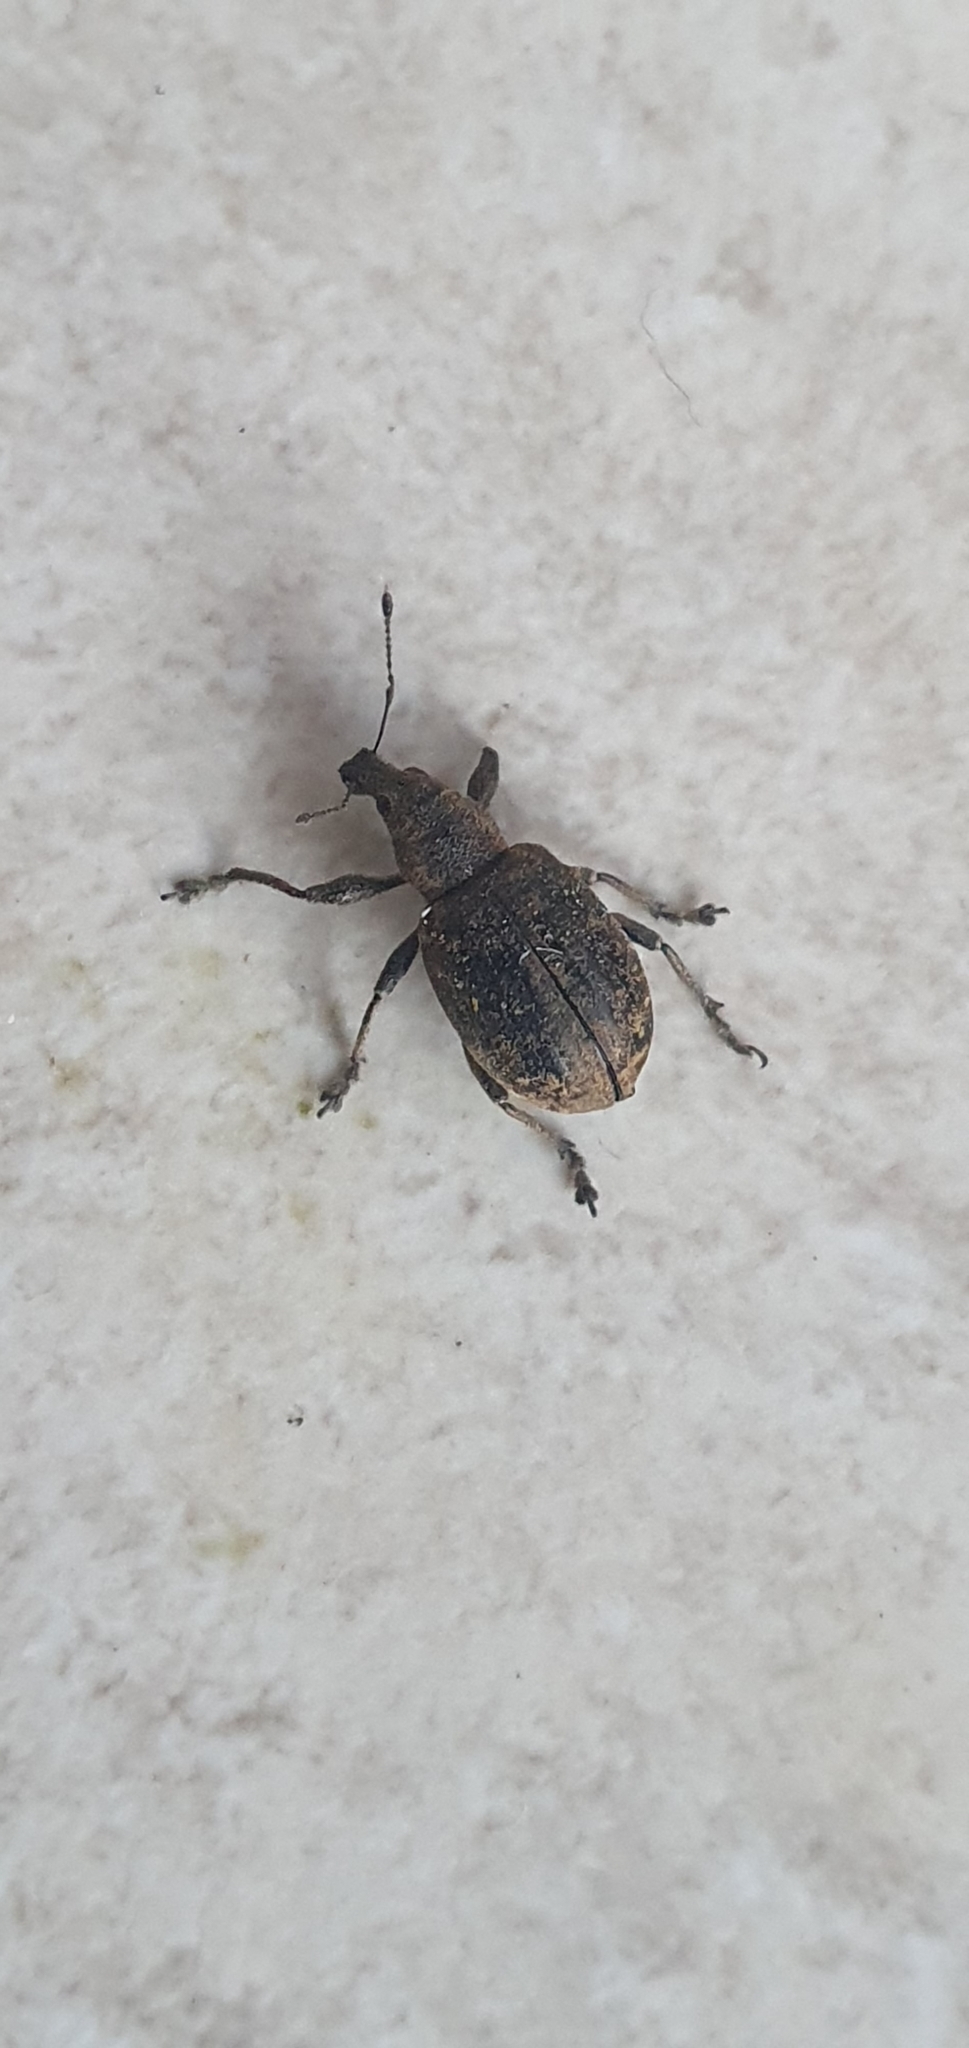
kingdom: Animalia
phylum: Arthropoda
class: Insecta
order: Coleoptera
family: Curculionidae
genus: Liophloeus
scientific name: Liophloeus tessulatus
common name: Weevil
